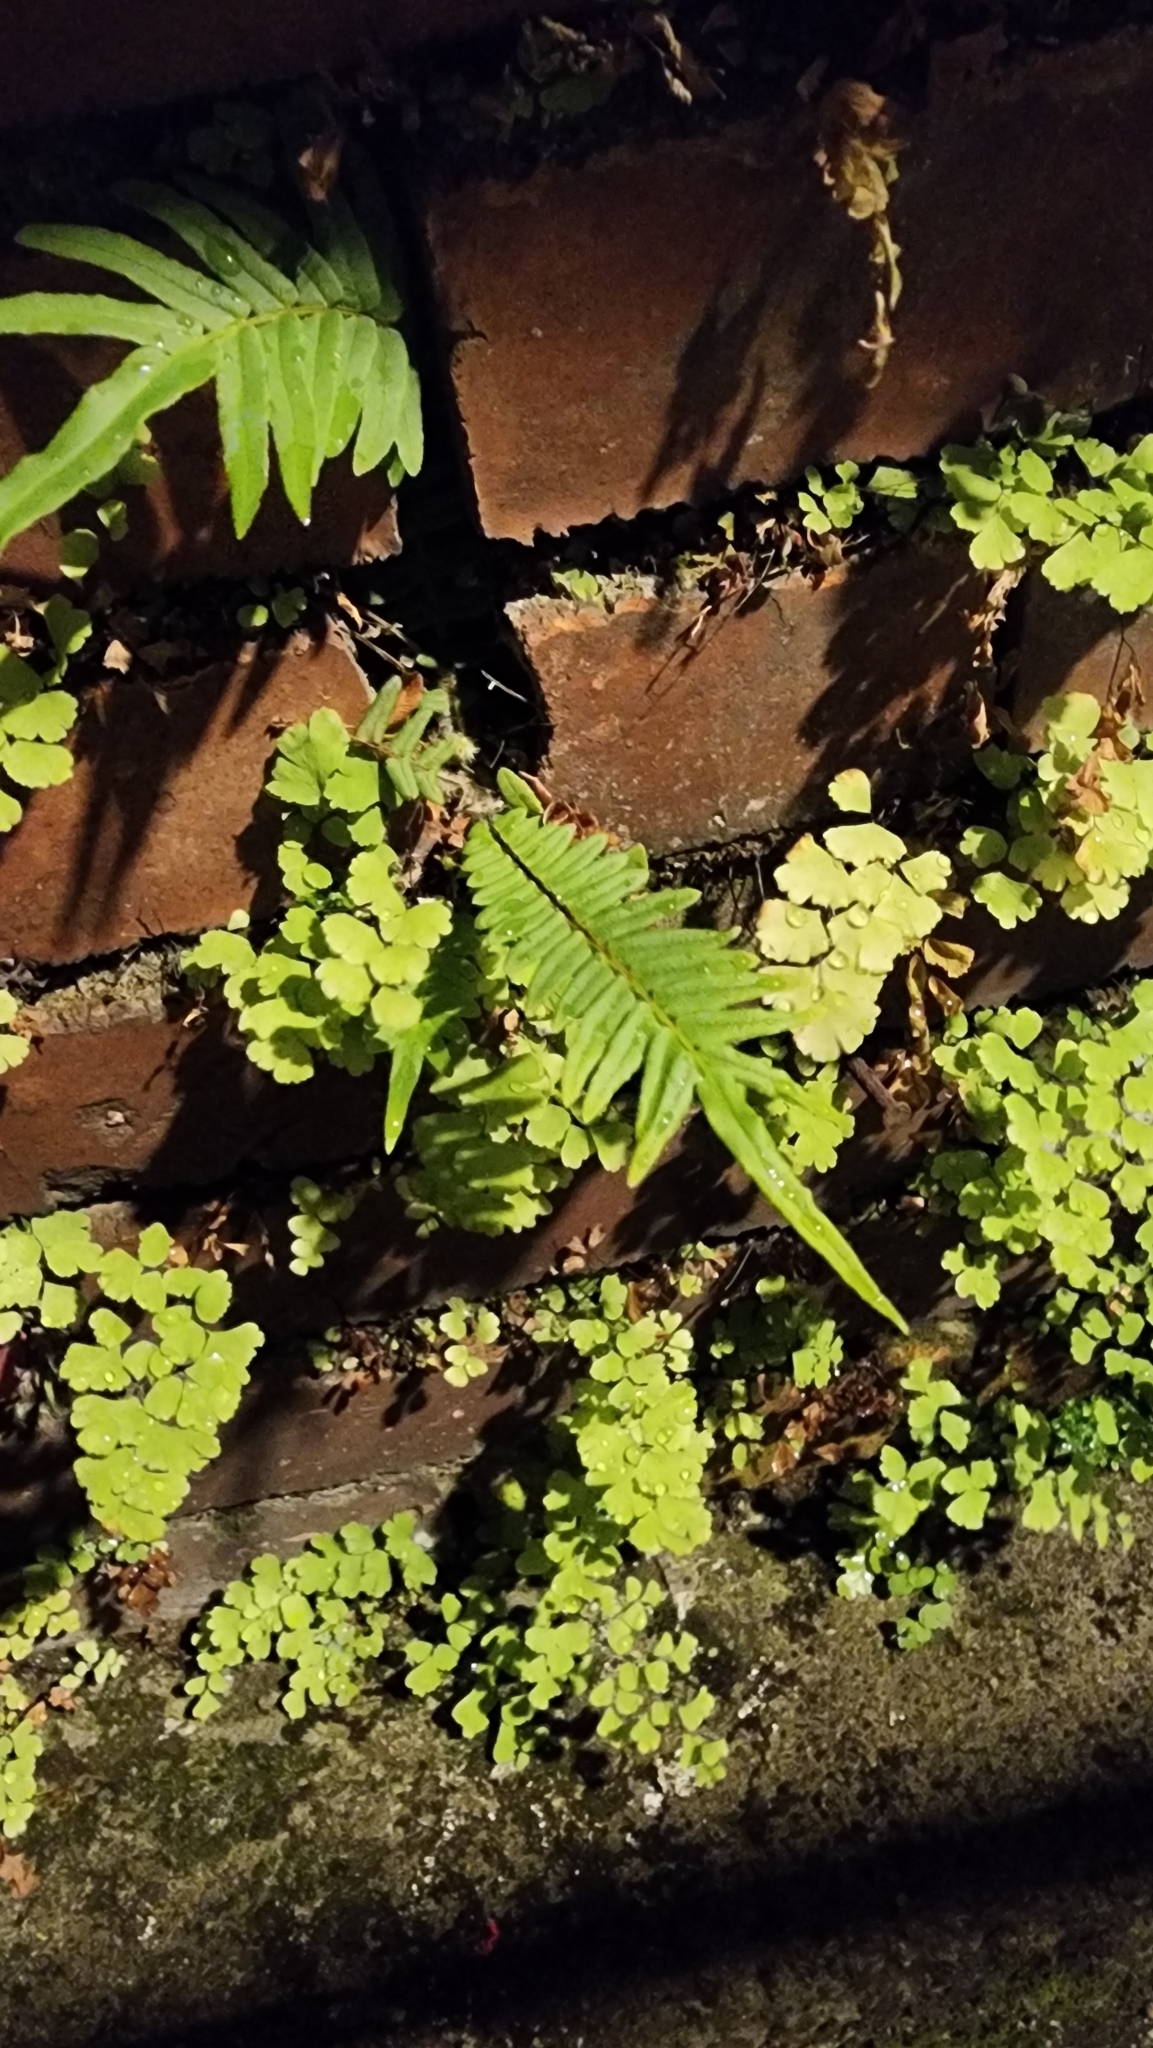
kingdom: Plantae
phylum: Tracheophyta
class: Polypodiopsida
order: Polypodiales
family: Pteridaceae
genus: Pteris
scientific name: Pteris vittata
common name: Ladder brake
